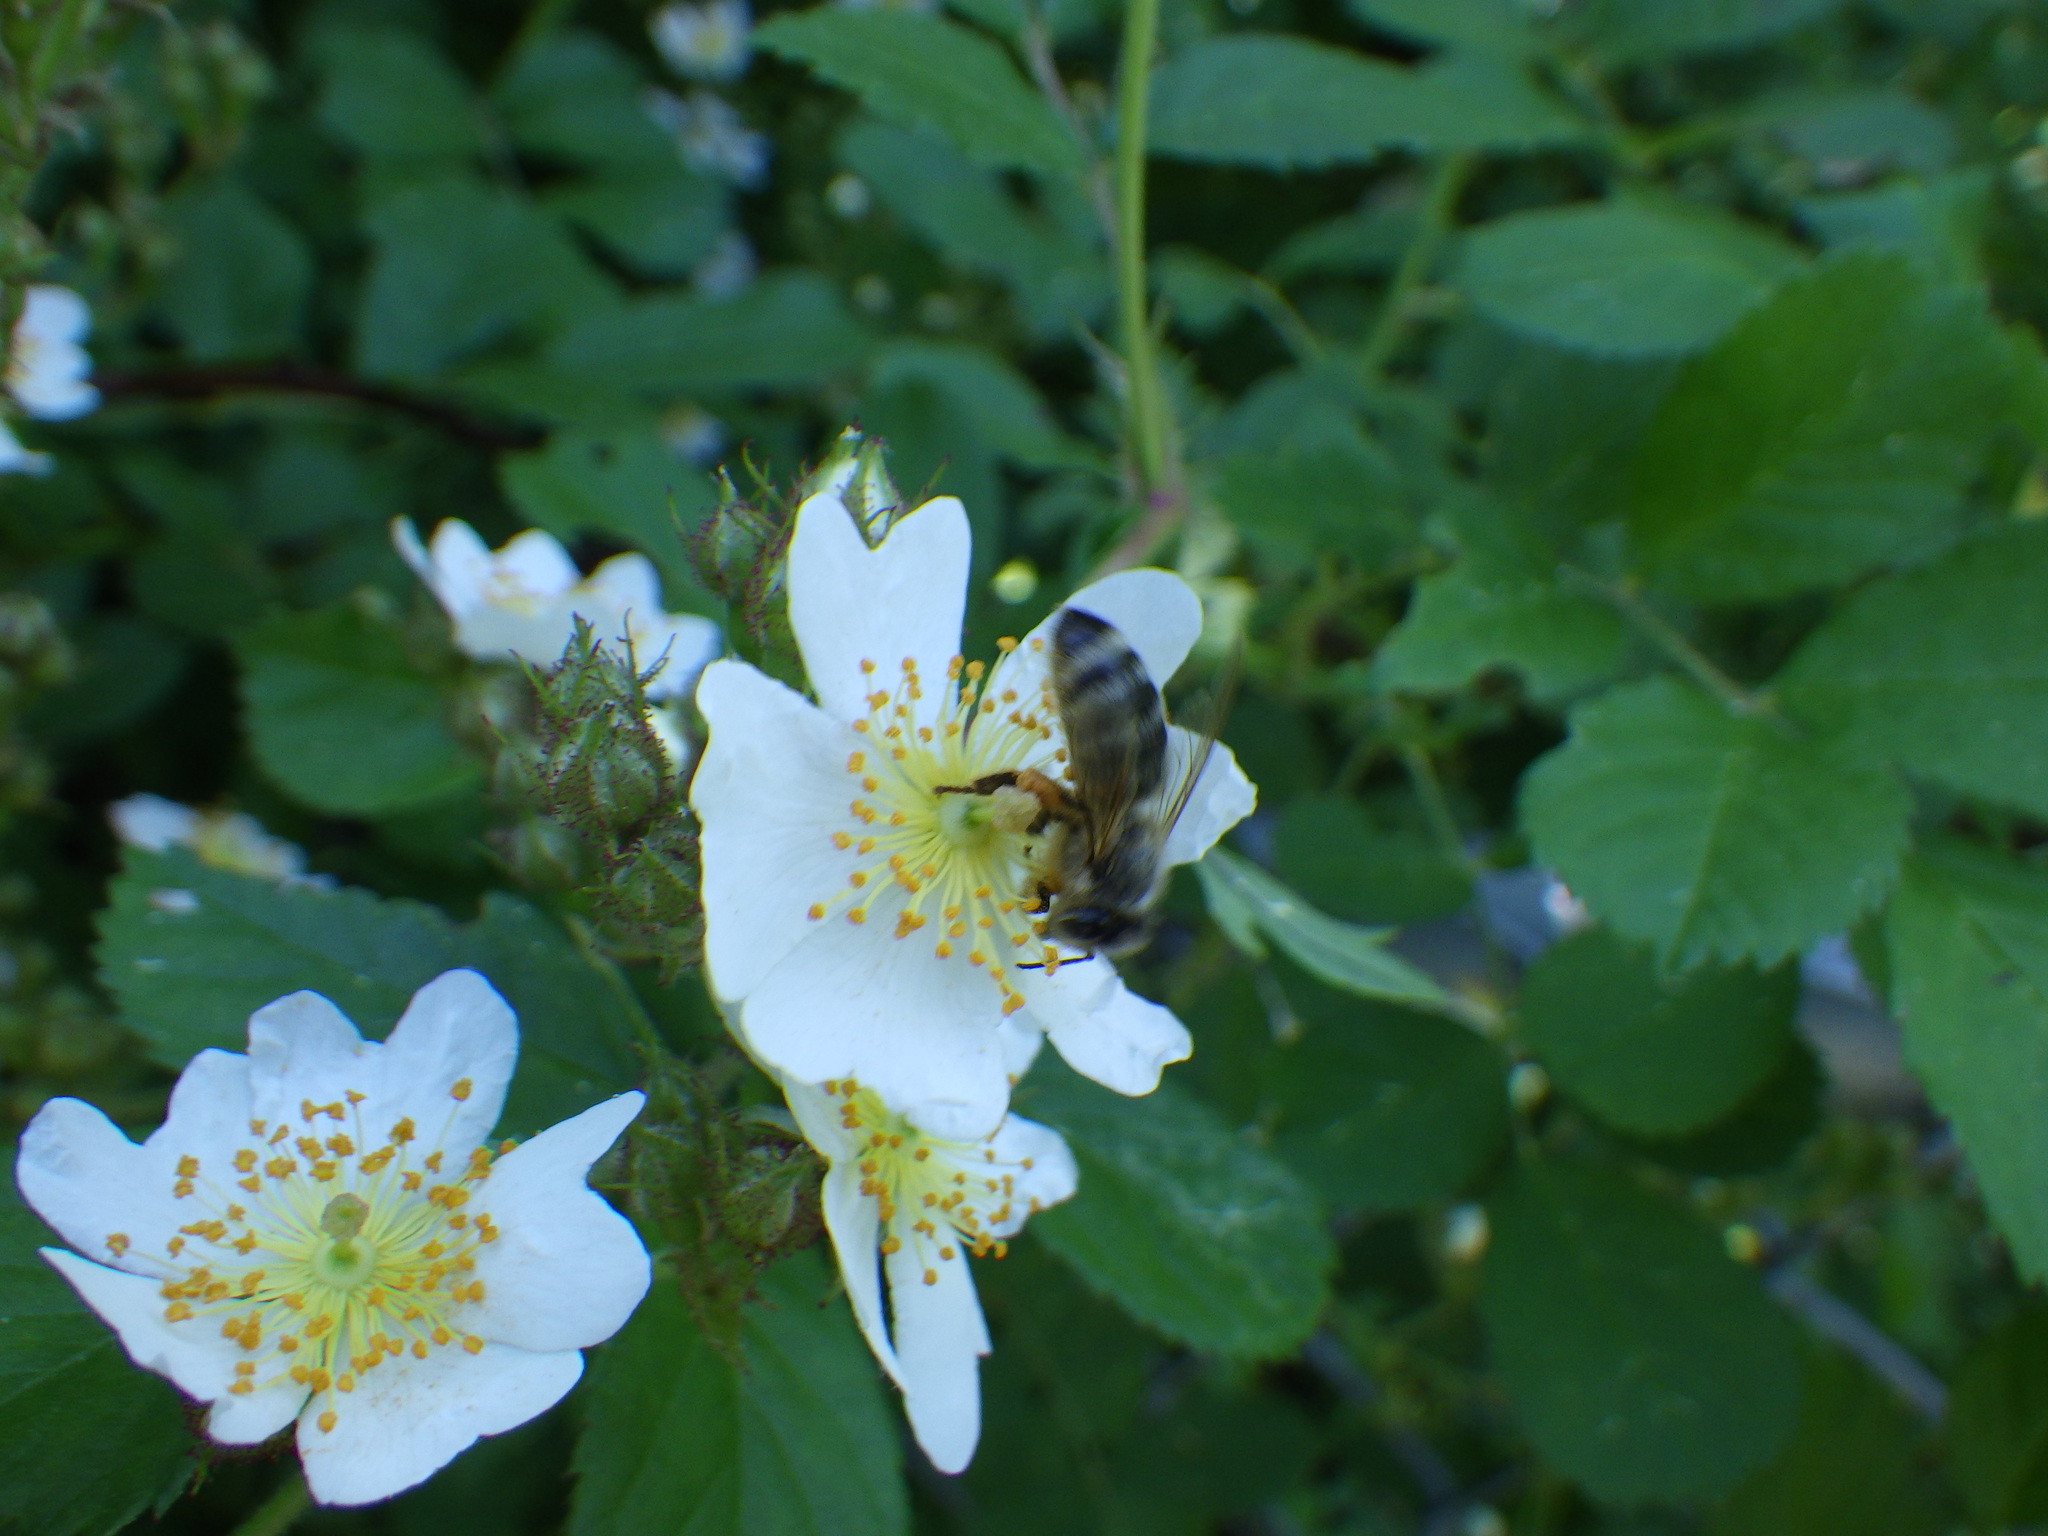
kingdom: Animalia
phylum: Arthropoda
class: Insecta
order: Hymenoptera
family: Apidae
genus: Apis
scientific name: Apis mellifera
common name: Honey bee
